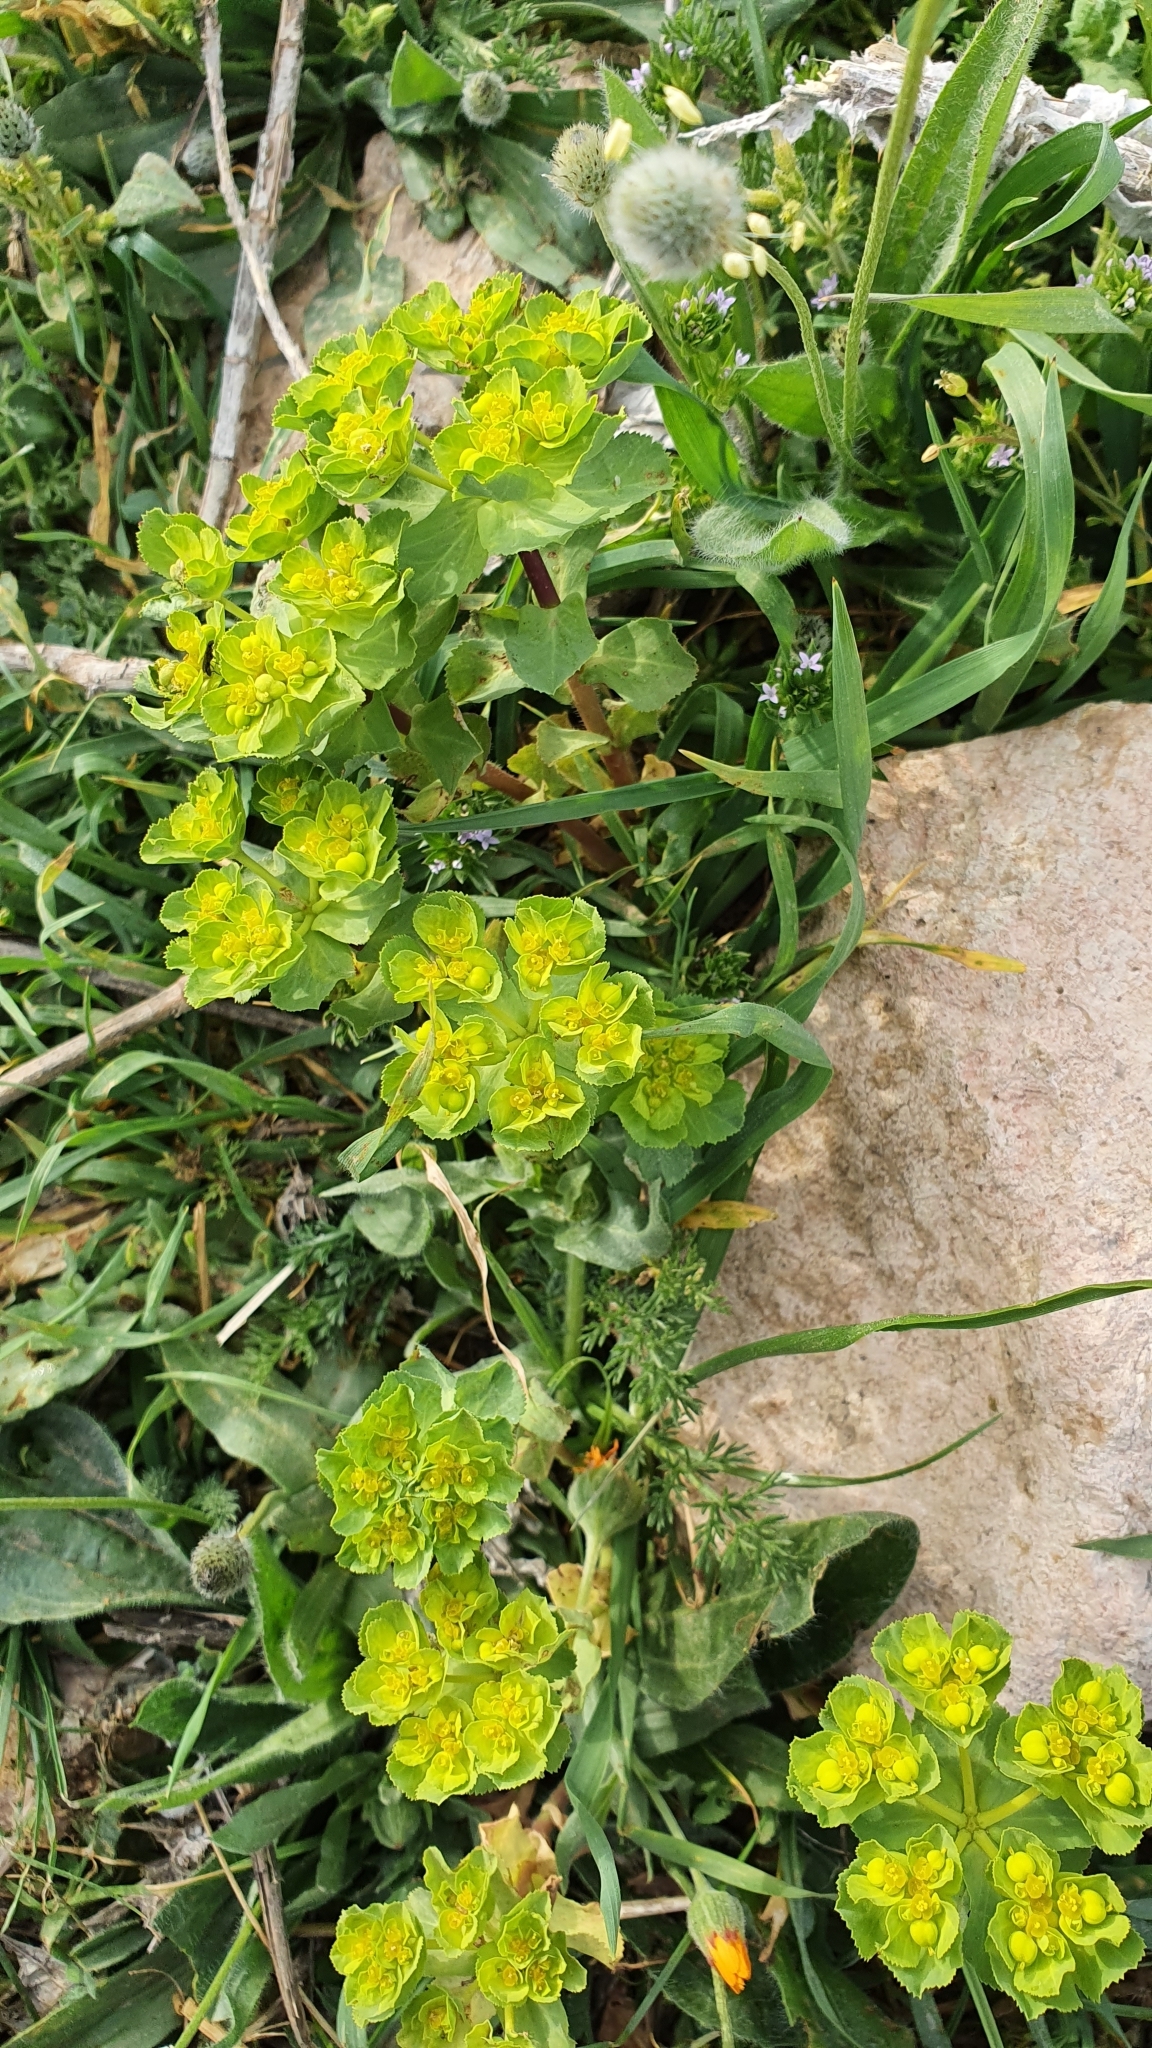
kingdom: Plantae
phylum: Tracheophyta
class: Magnoliopsida
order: Malpighiales
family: Euphorbiaceae
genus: Euphorbia
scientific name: Euphorbia helioscopia
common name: Sun spurge
